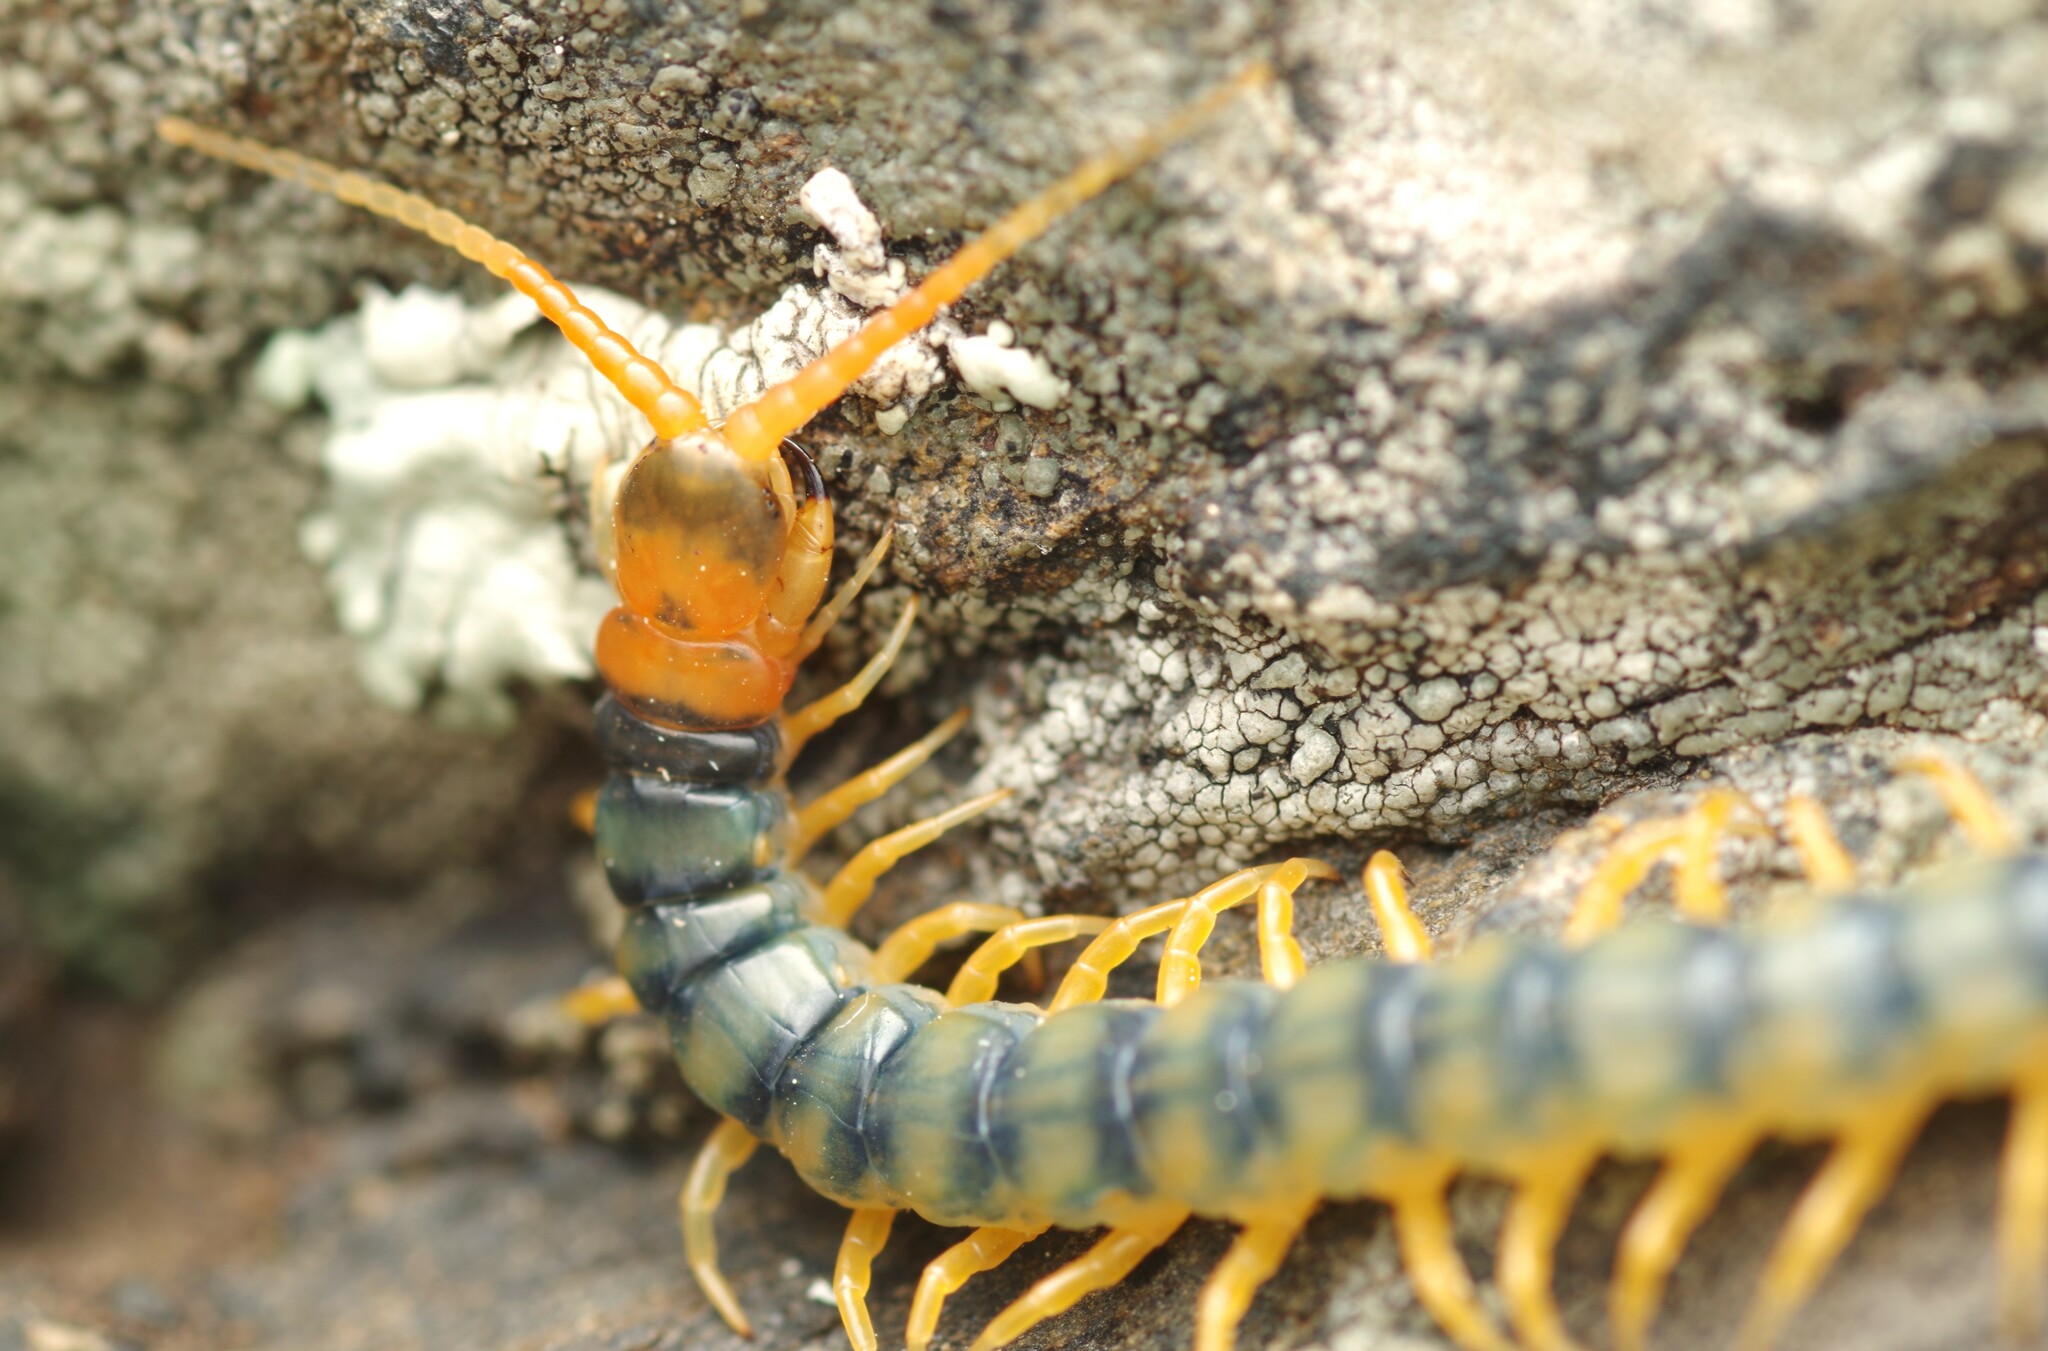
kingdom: Animalia
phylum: Arthropoda
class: Chilopoda
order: Scolopendromorpha
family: Scolopendridae
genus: Scolopendra
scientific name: Scolopendra cingulata
